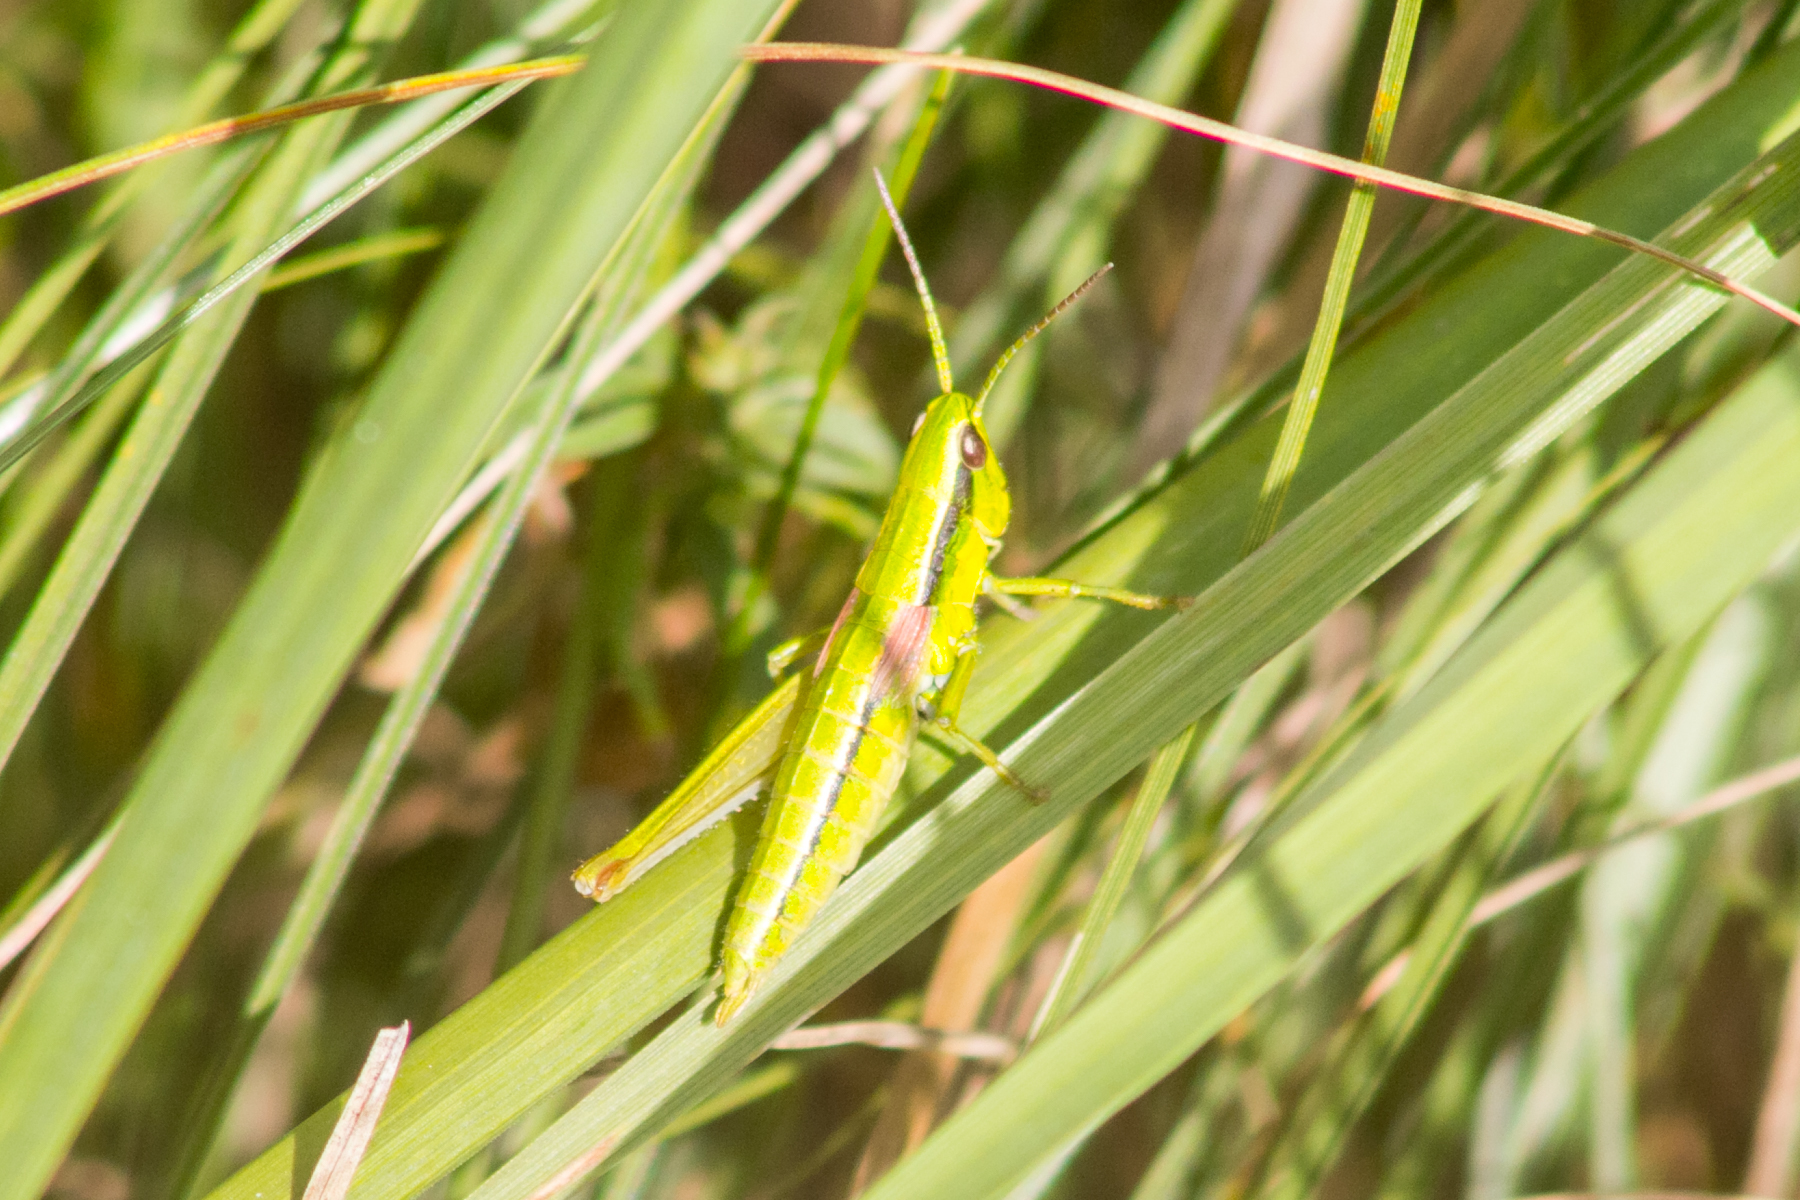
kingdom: Animalia
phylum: Arthropoda
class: Insecta
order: Orthoptera
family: Acrididae
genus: Euthystira
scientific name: Euthystira brachyptera
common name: Small gold grasshopper
